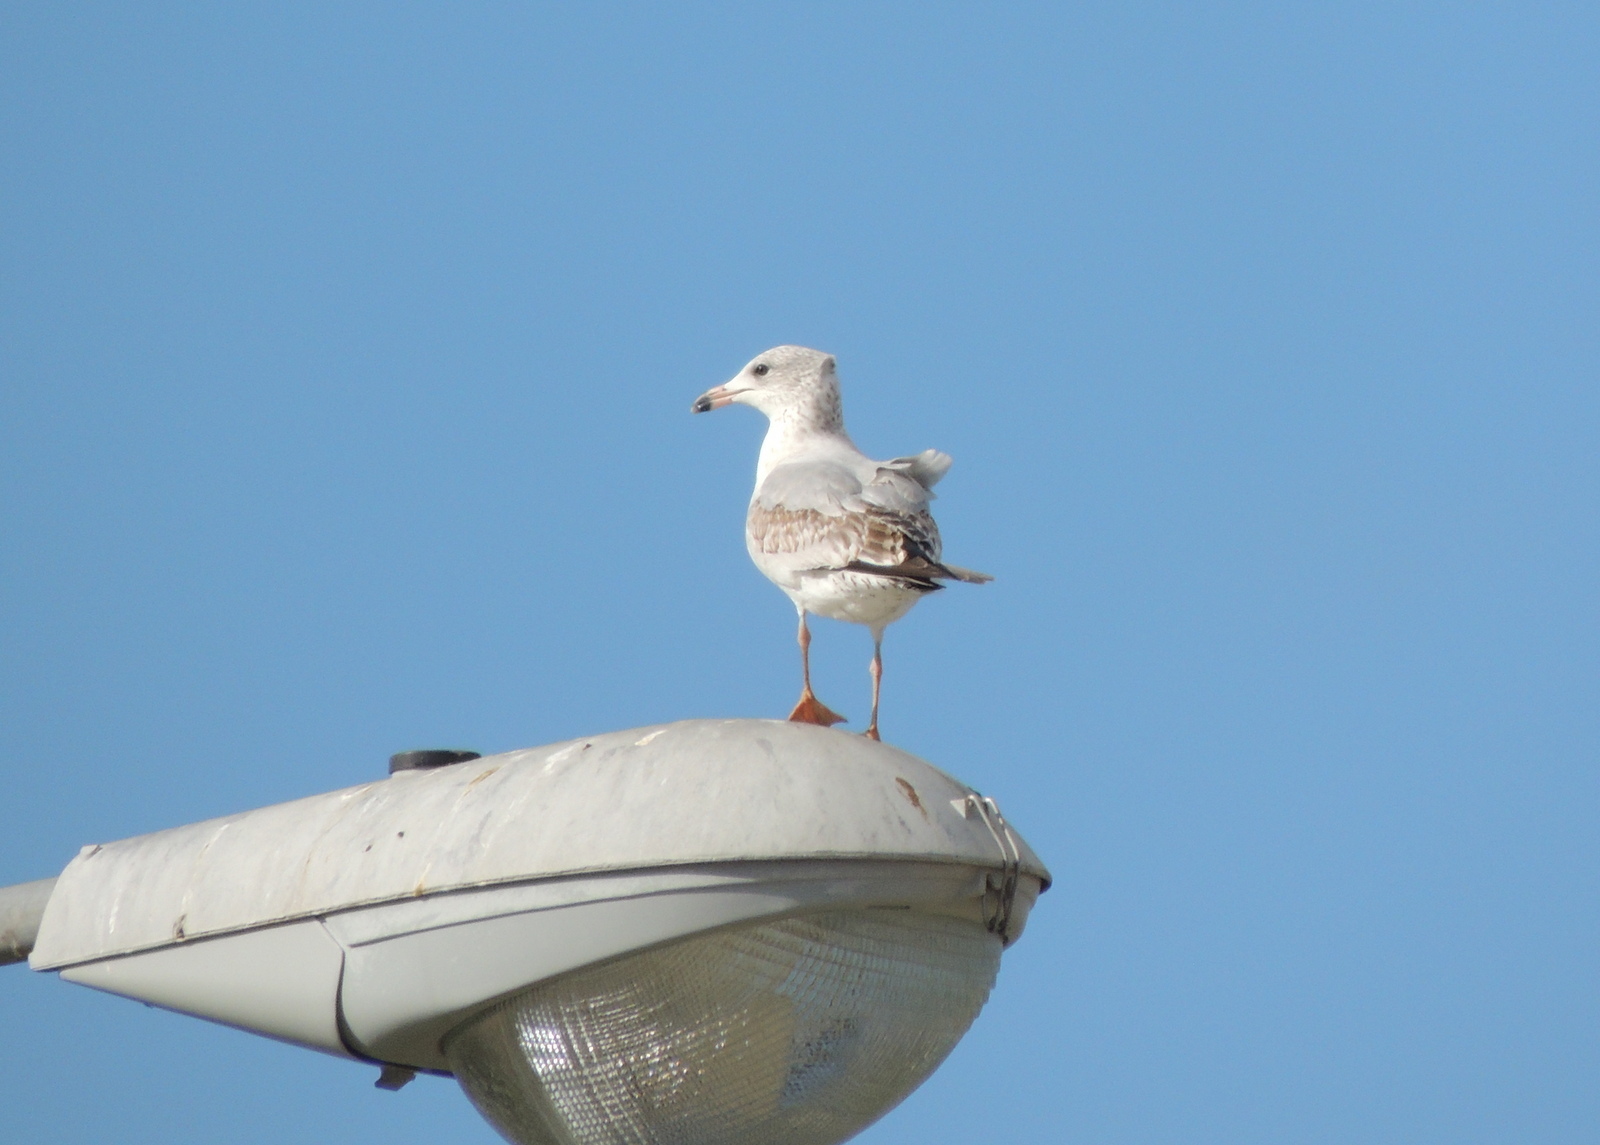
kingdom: Animalia
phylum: Chordata
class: Aves
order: Charadriiformes
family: Laridae
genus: Larus
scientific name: Larus delawarensis
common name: Ring-billed gull
